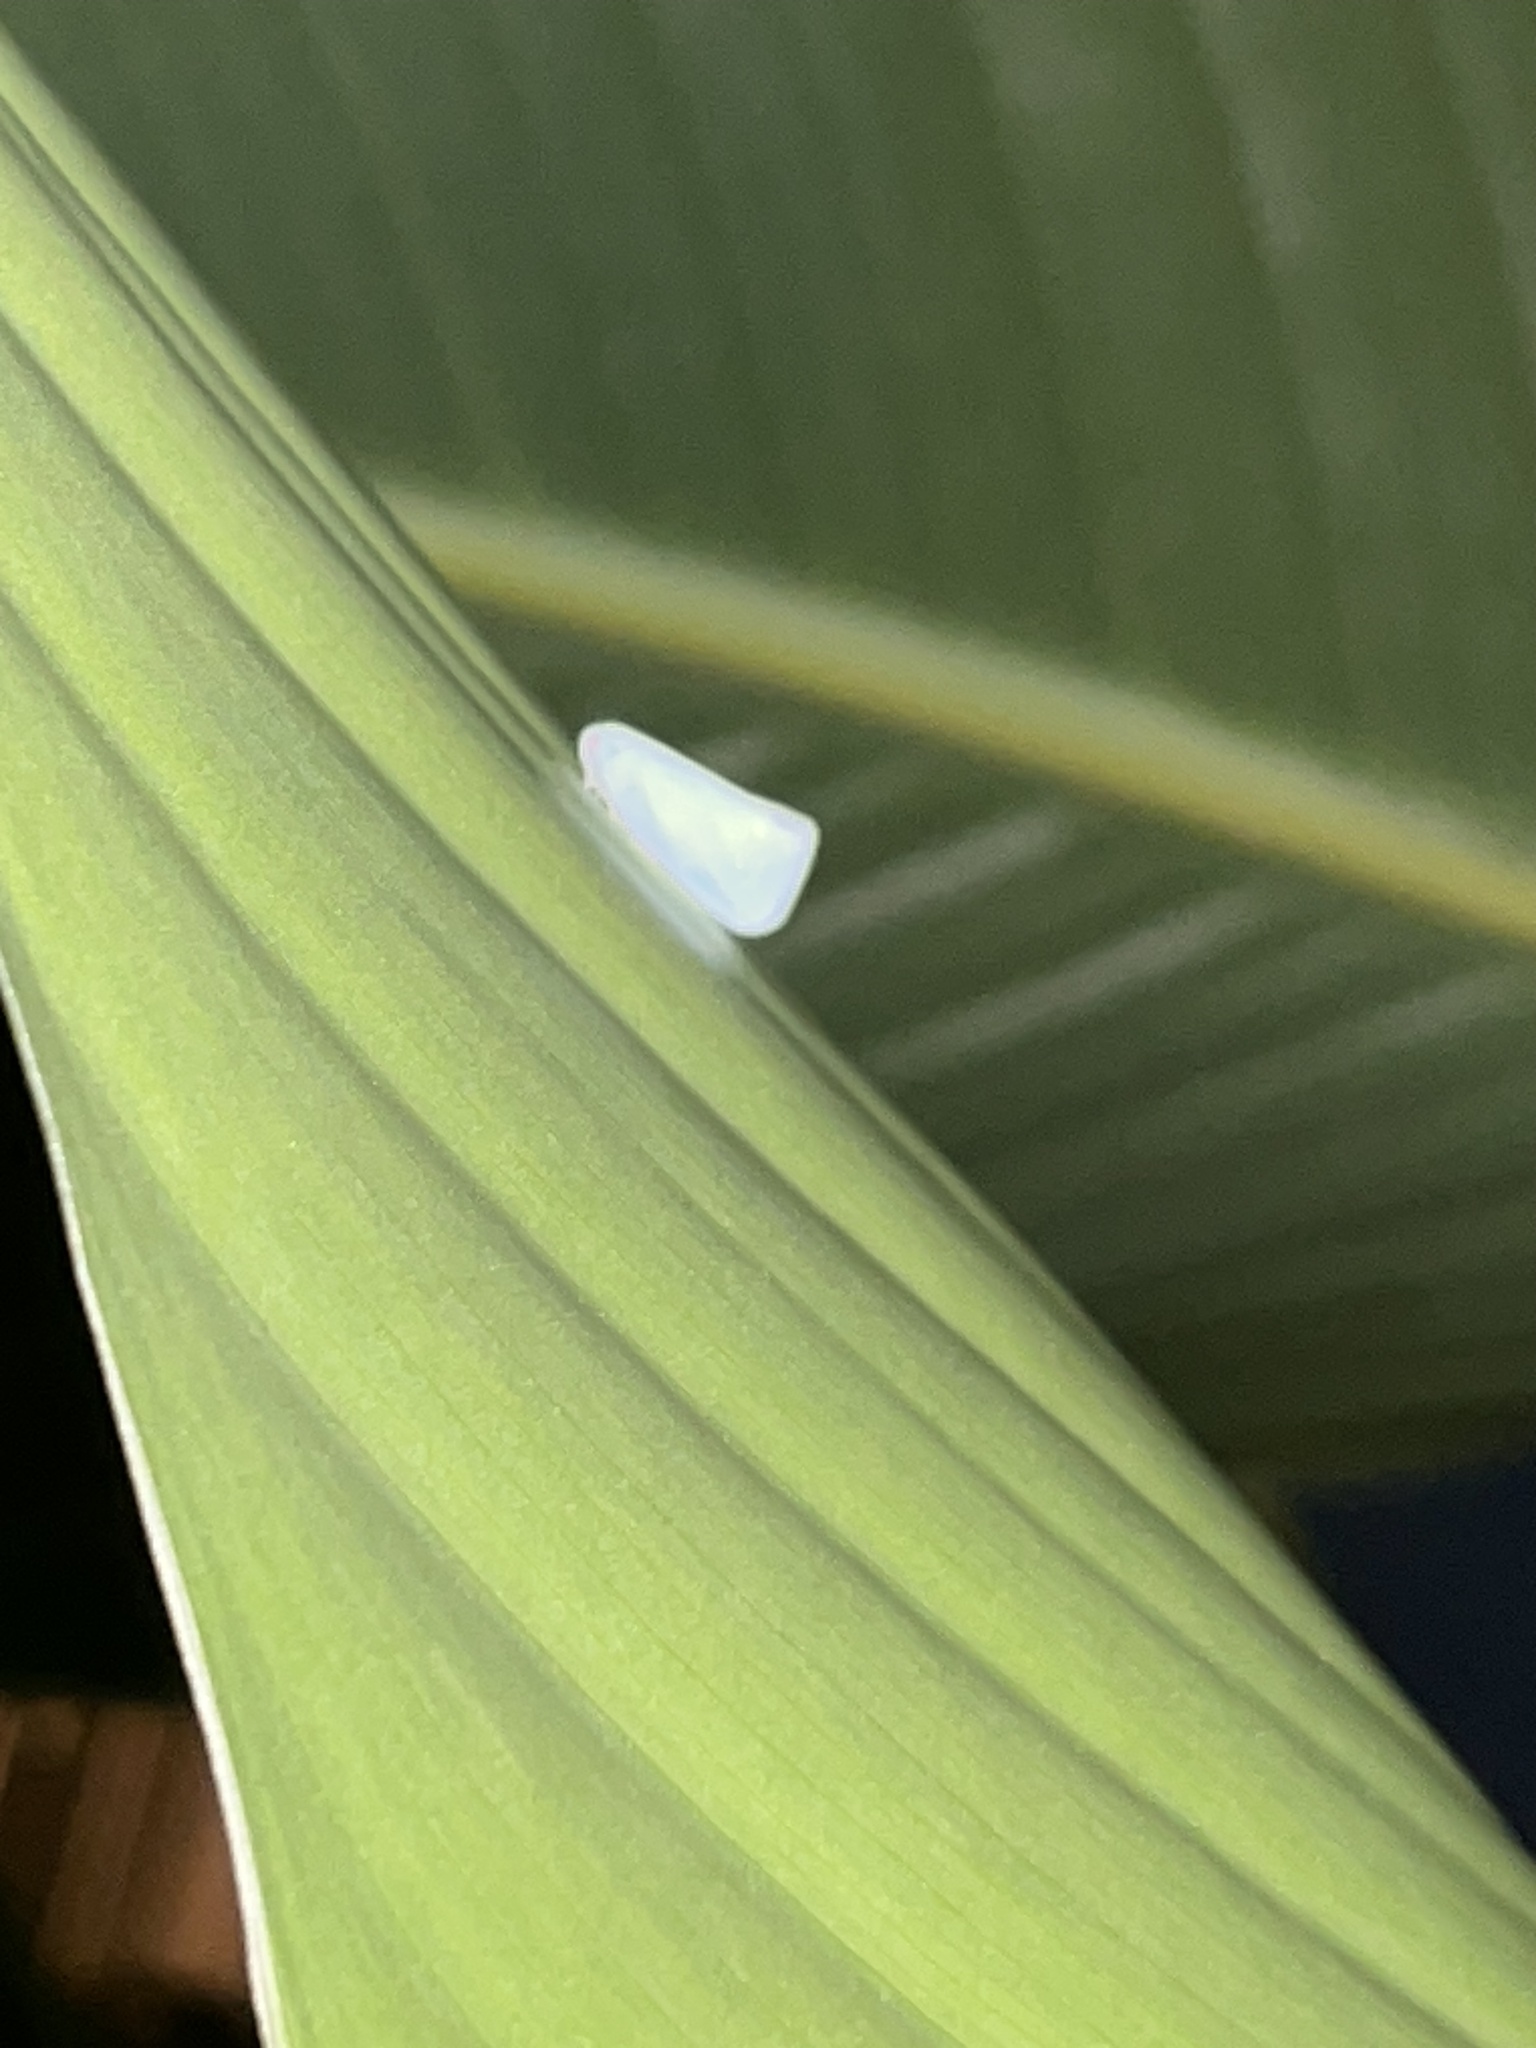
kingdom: Animalia
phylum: Arthropoda
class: Insecta
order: Hemiptera
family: Flatidae
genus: Flatormenis
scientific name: Flatormenis proxima
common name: Northern flatid planthopper
